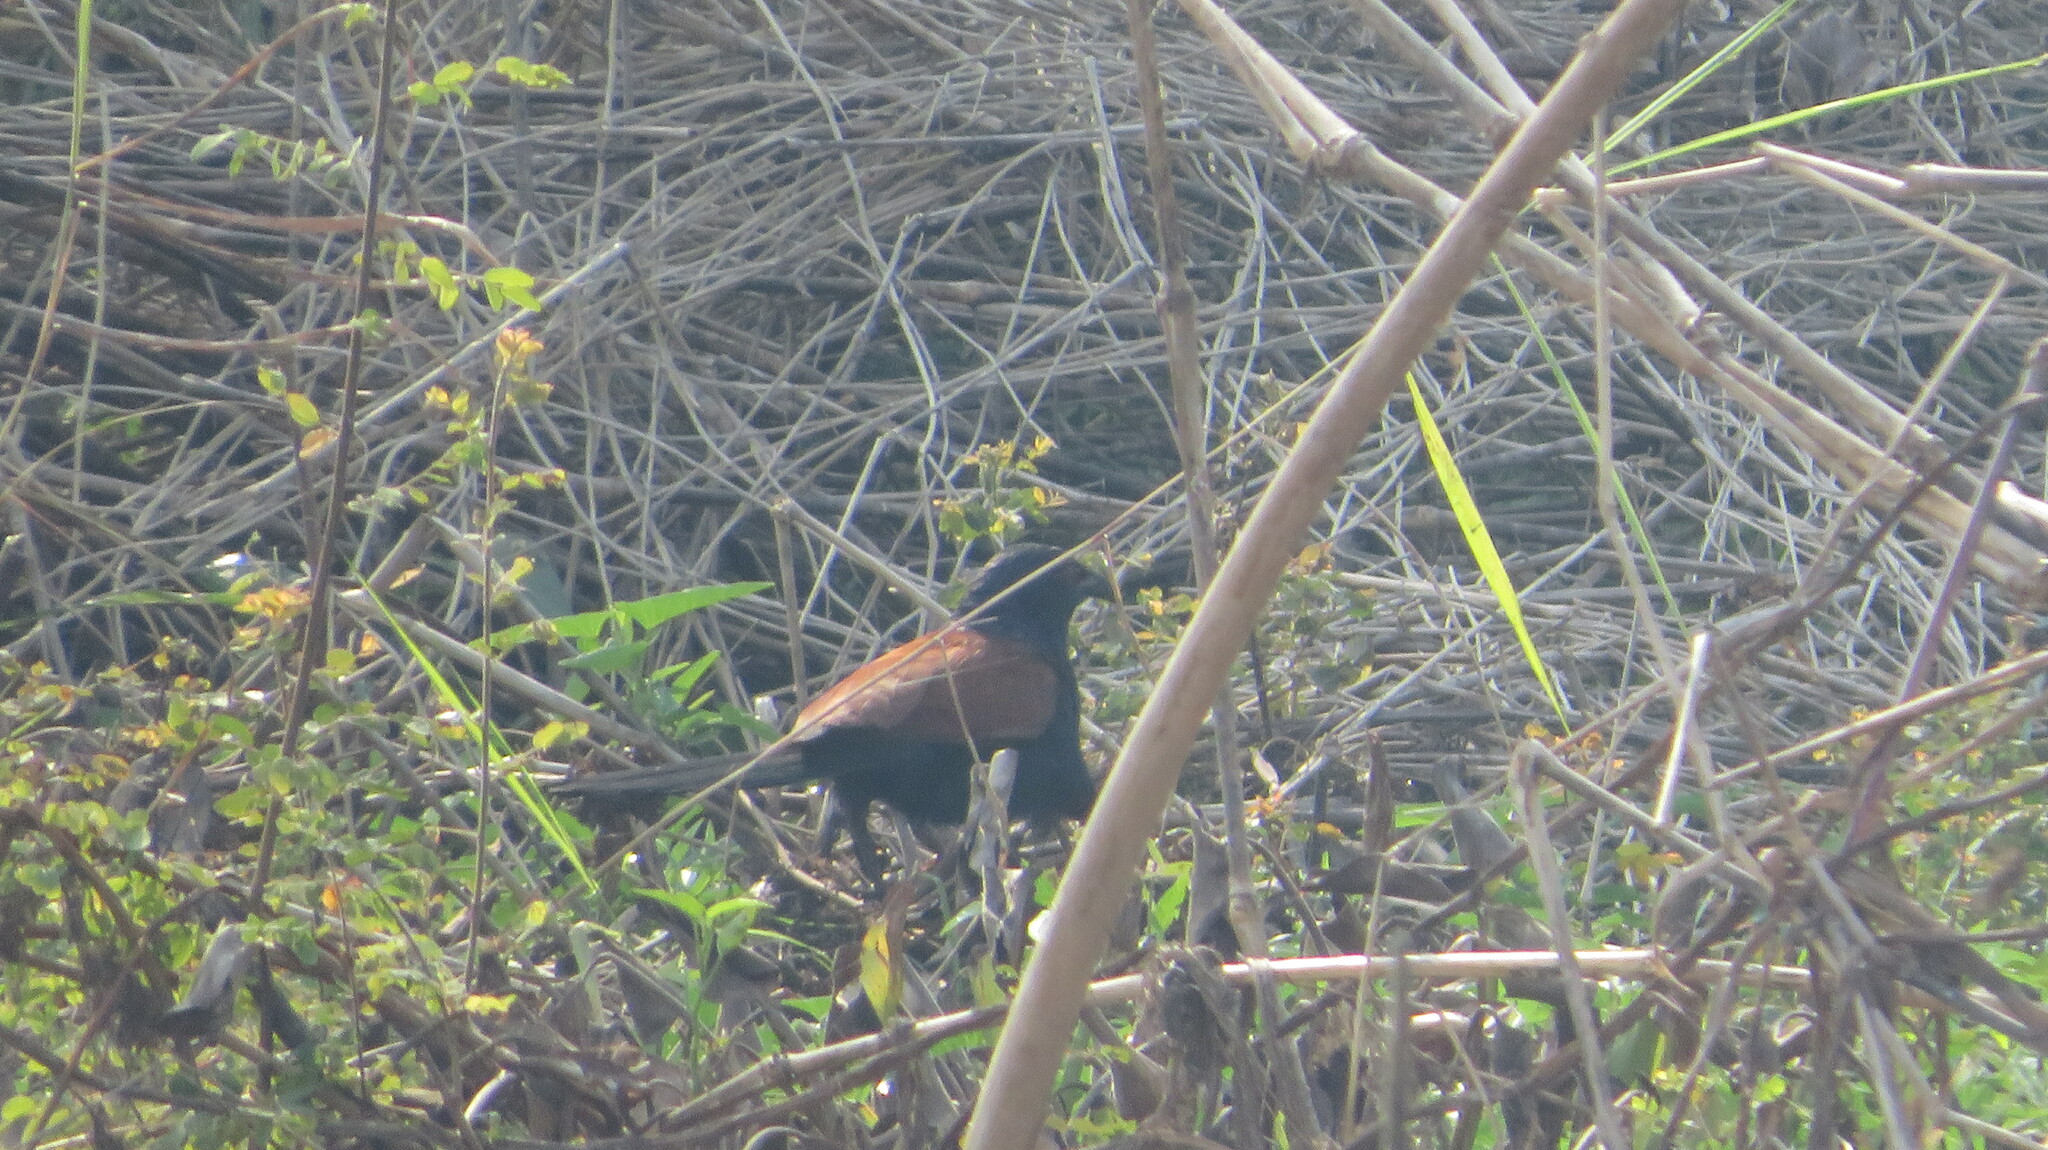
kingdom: Animalia
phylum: Chordata
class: Aves
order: Cuculiformes
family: Cuculidae
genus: Centropus
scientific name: Centropus sinensis
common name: Greater coucal
